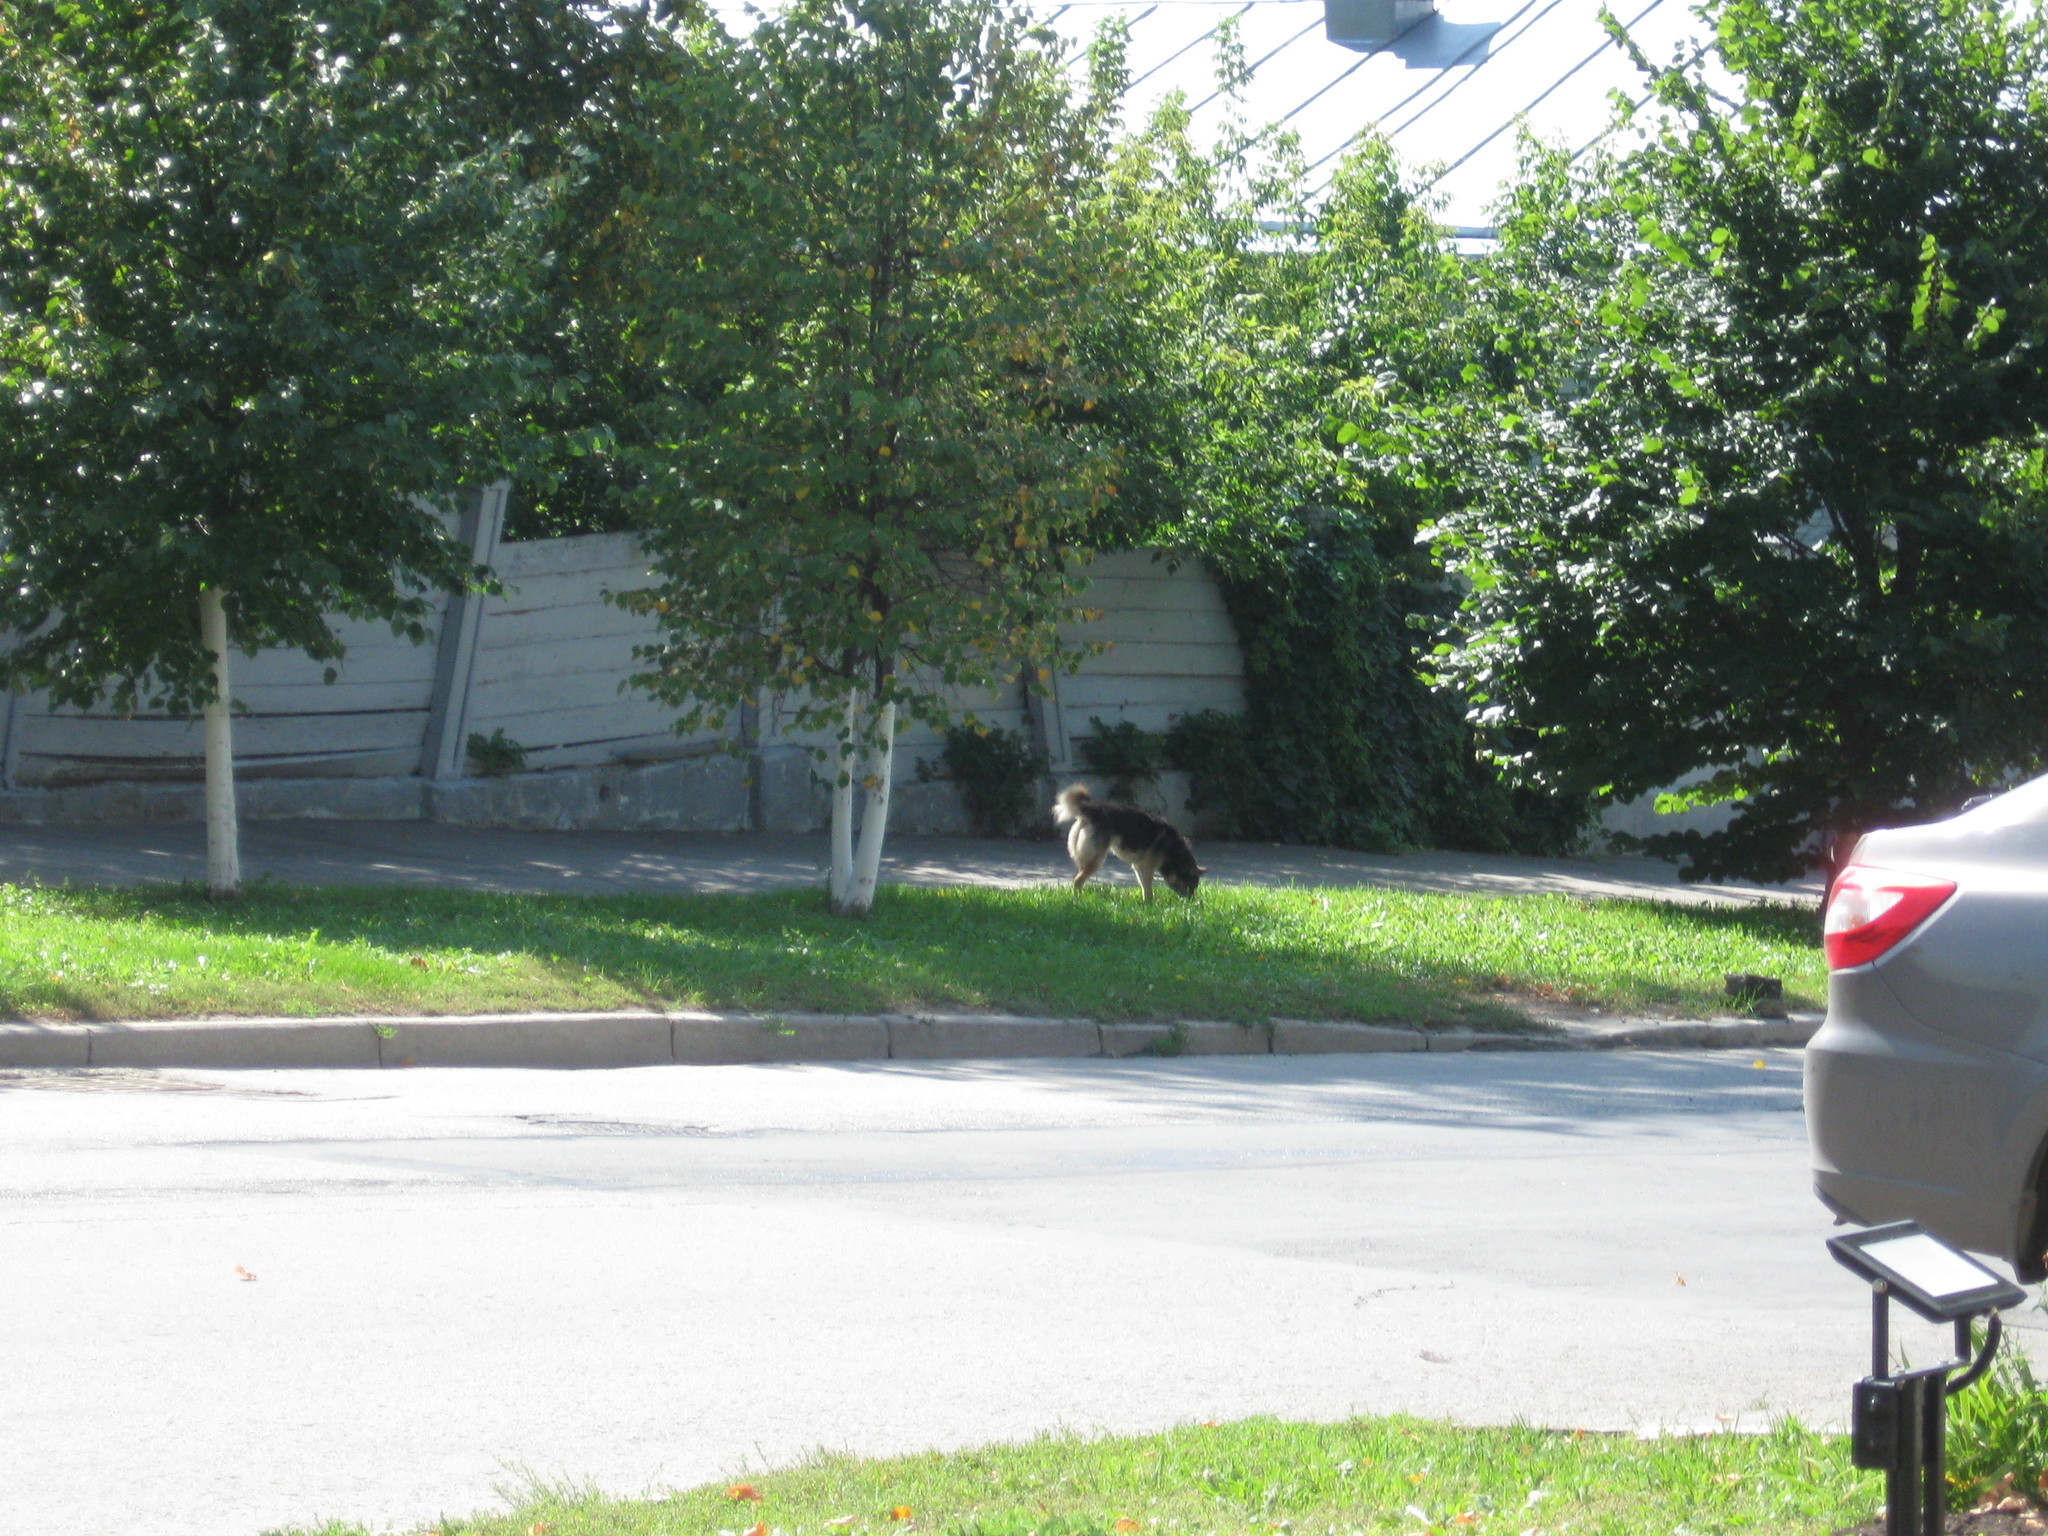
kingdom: Animalia
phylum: Chordata
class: Mammalia
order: Carnivora
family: Canidae
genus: Canis
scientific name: Canis lupus
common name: Gray wolf
